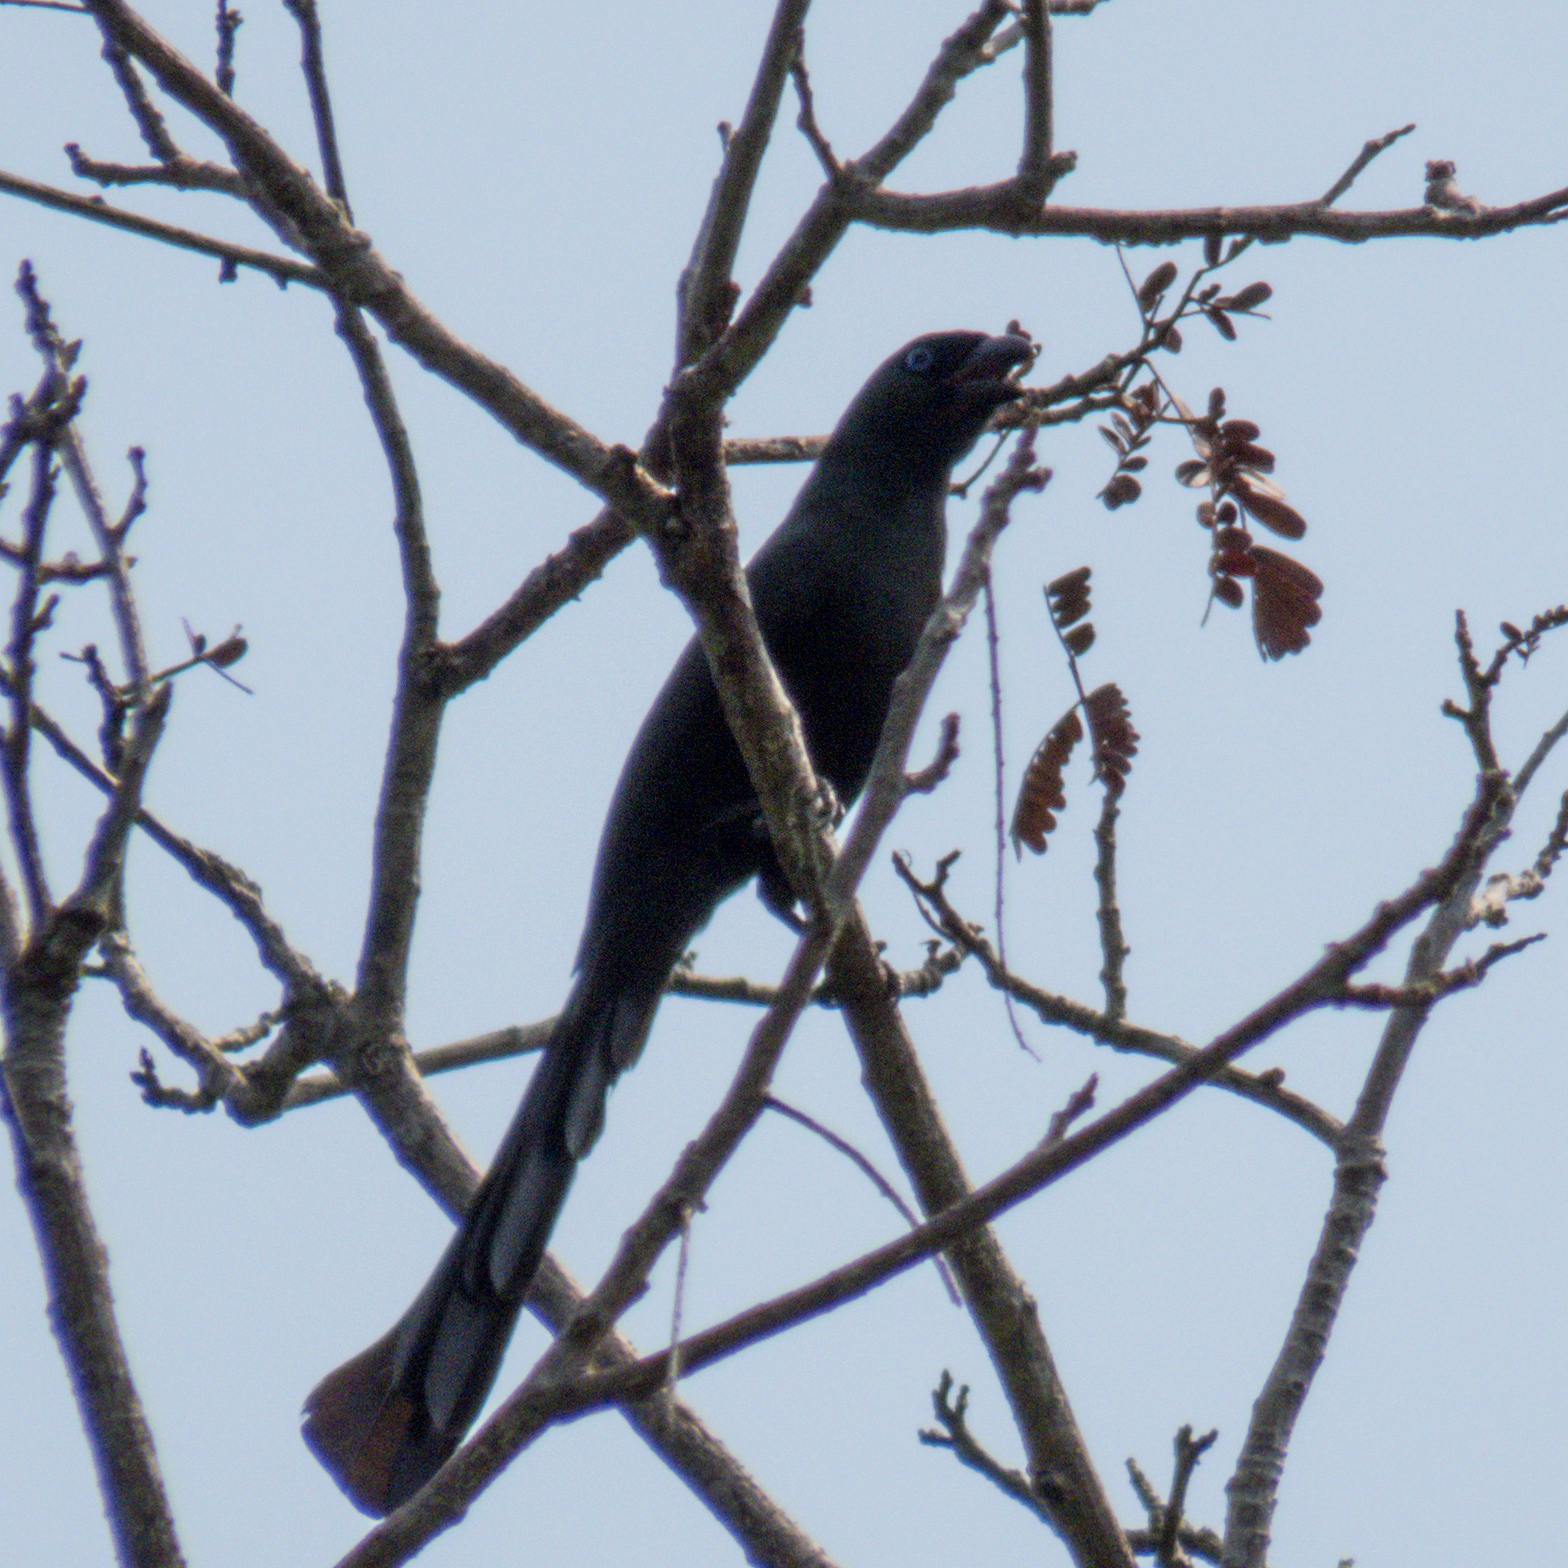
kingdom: Animalia
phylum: Chordata
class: Aves
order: Passeriformes
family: Corvidae
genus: Crypsirina
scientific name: Crypsirina temia
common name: Racket-tailed treepie
